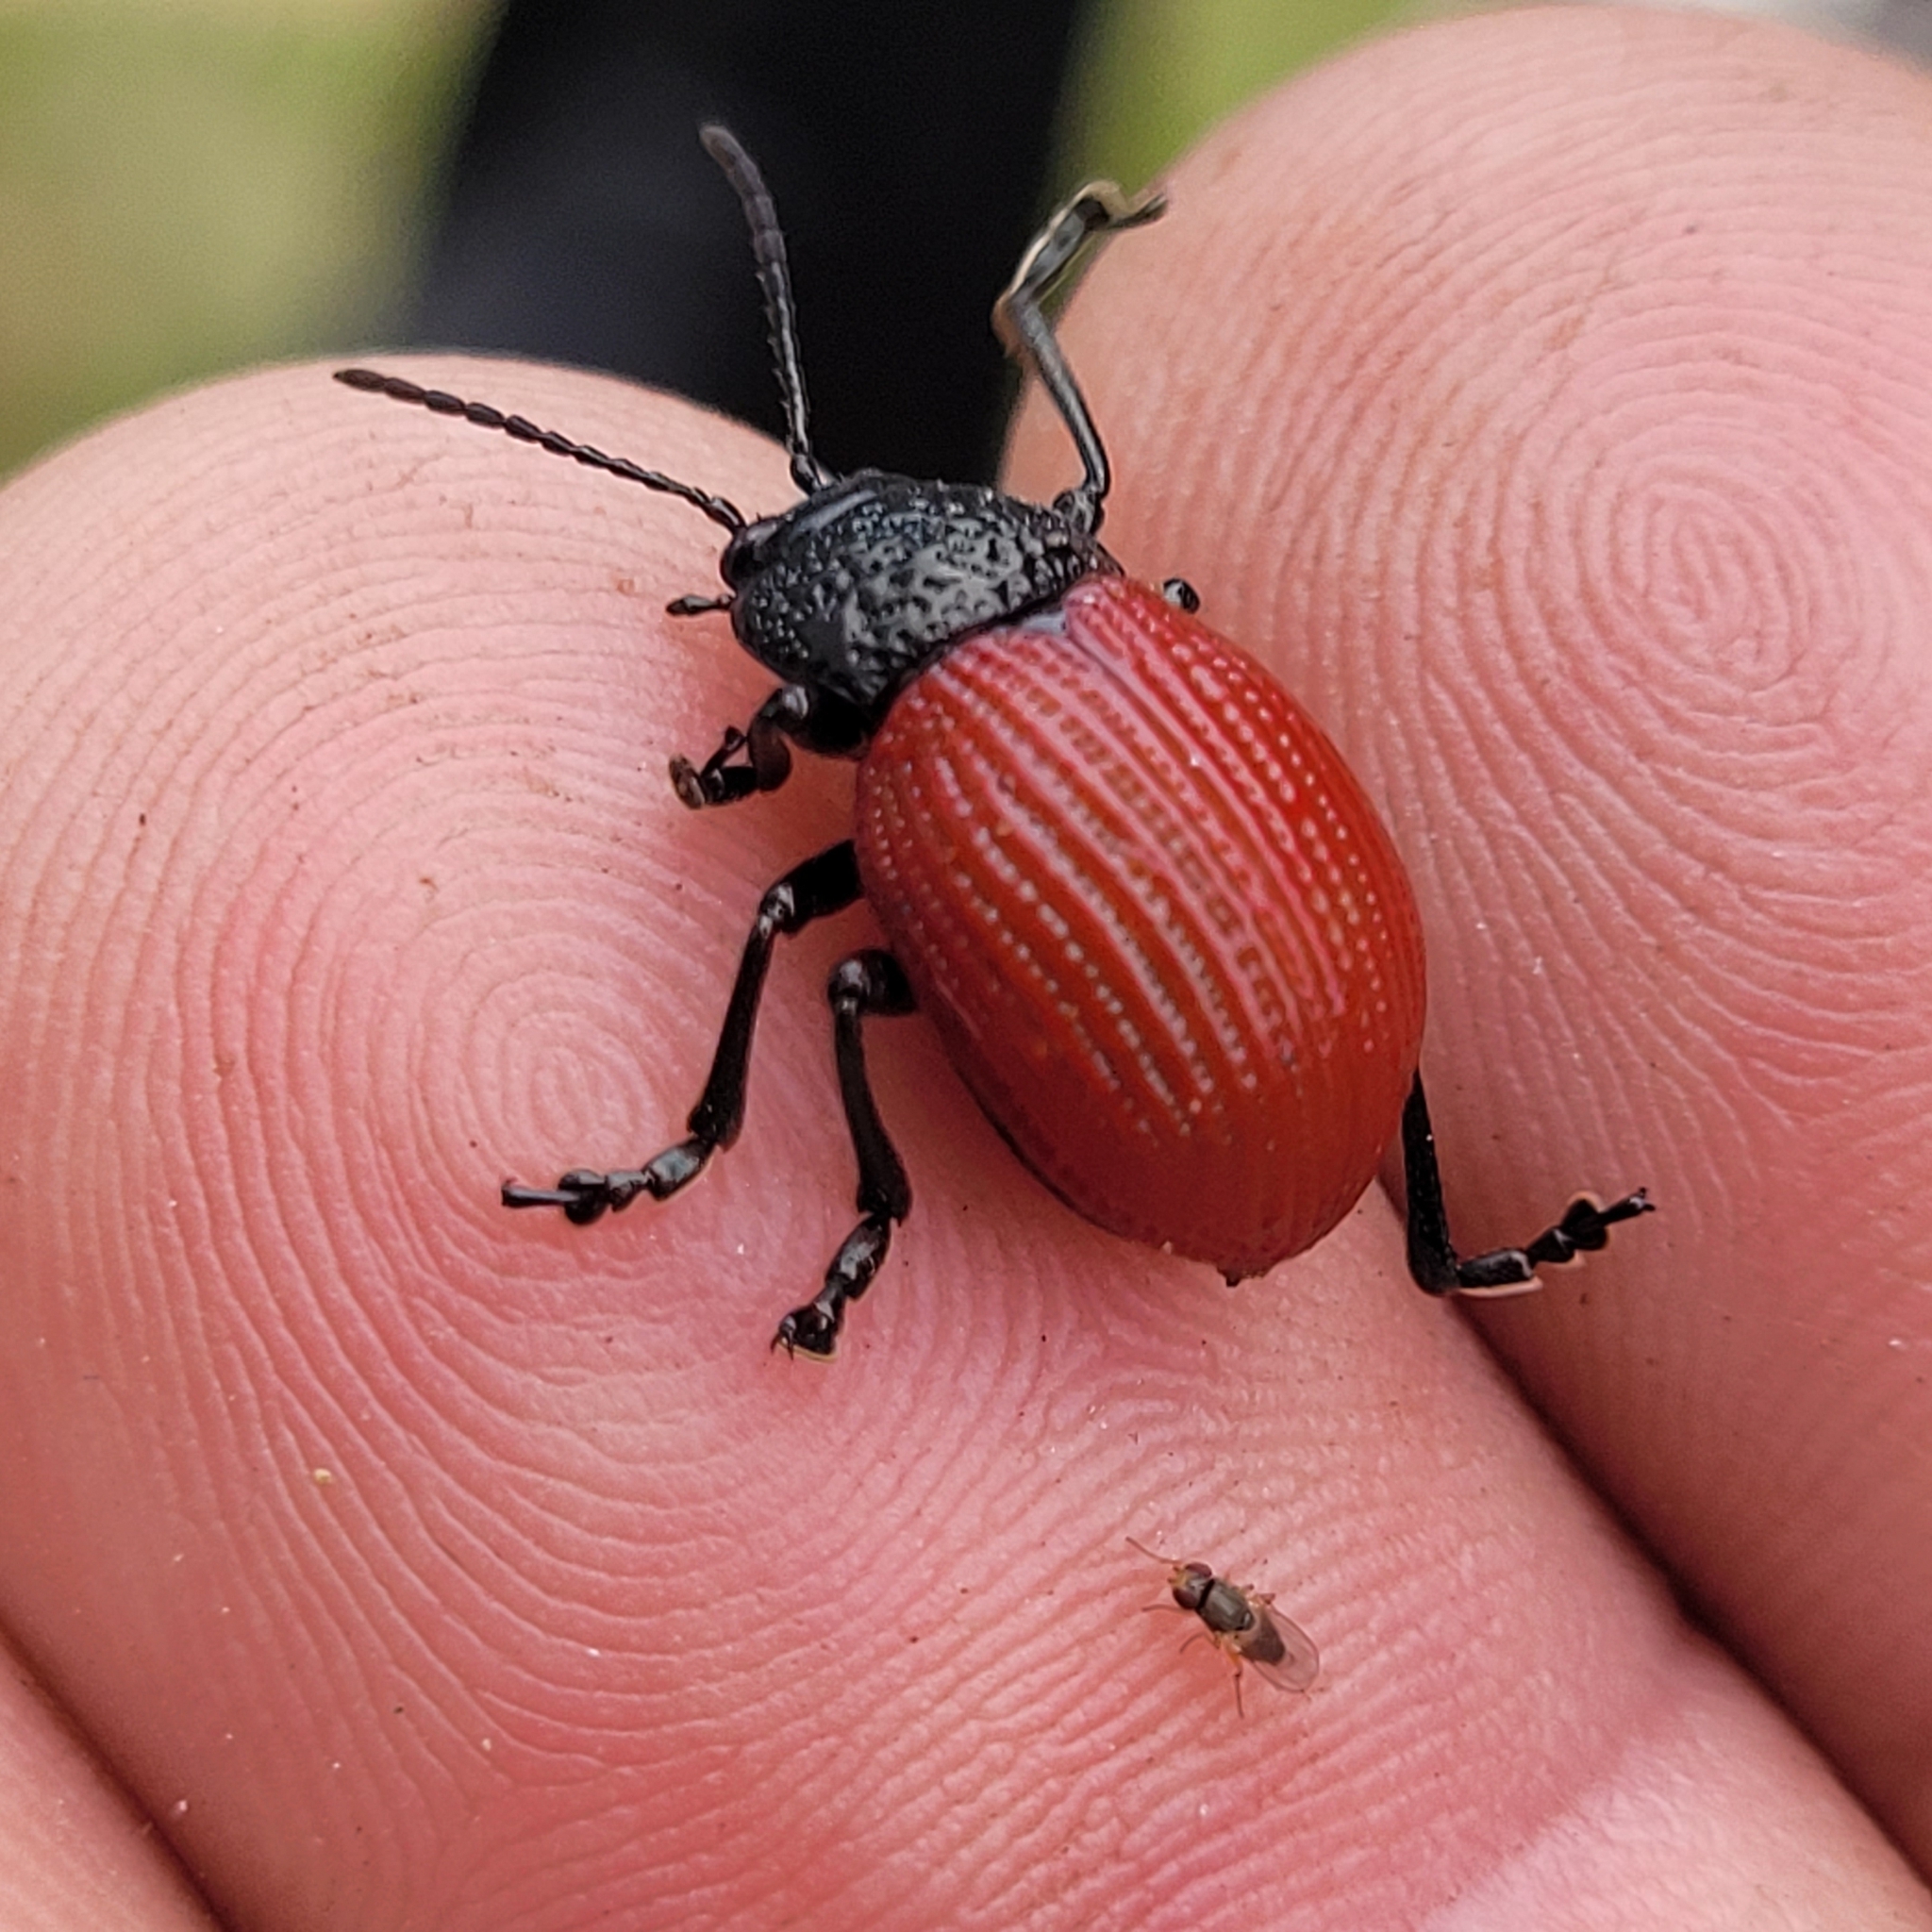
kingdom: Animalia
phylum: Arthropoda
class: Insecta
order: Coleoptera
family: Chrysomelidae
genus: Elytrosphaera
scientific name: Elytrosphaera
